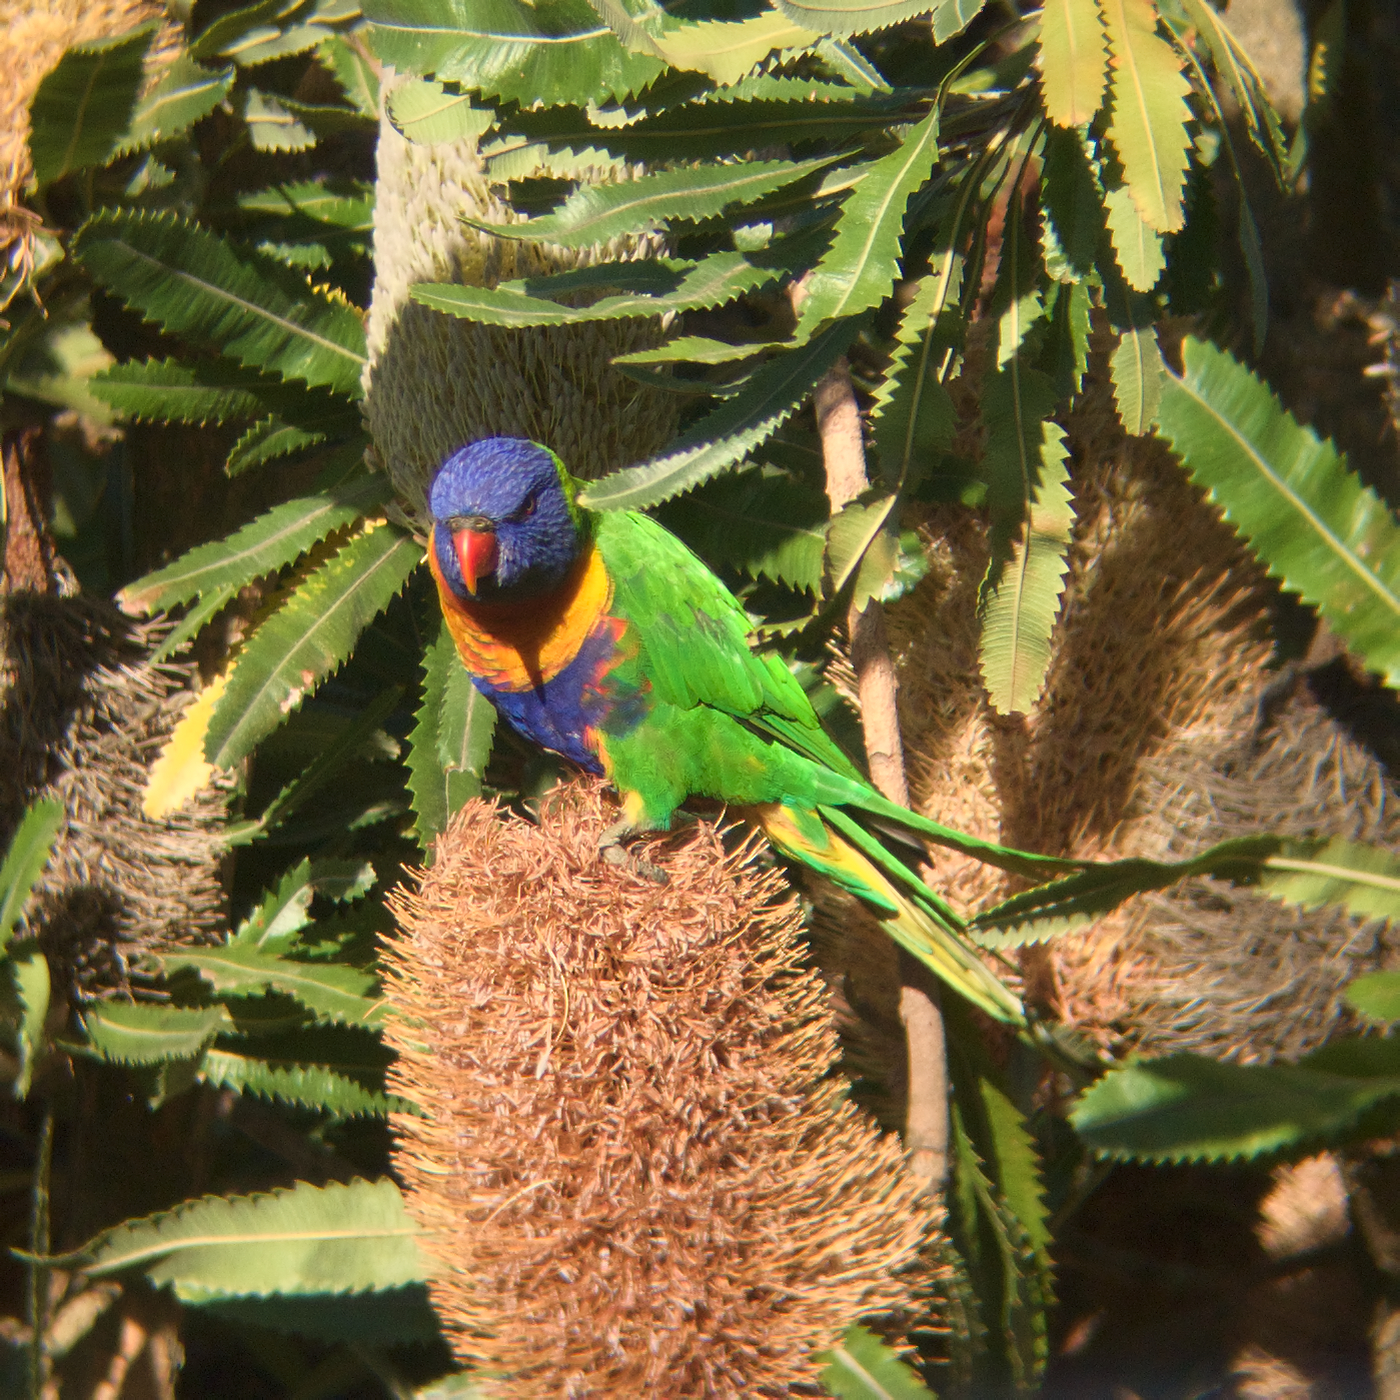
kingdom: Animalia
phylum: Chordata
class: Aves
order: Psittaciformes
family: Psittacidae
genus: Trichoglossus
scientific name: Trichoglossus haematodus
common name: Coconut lorikeet
